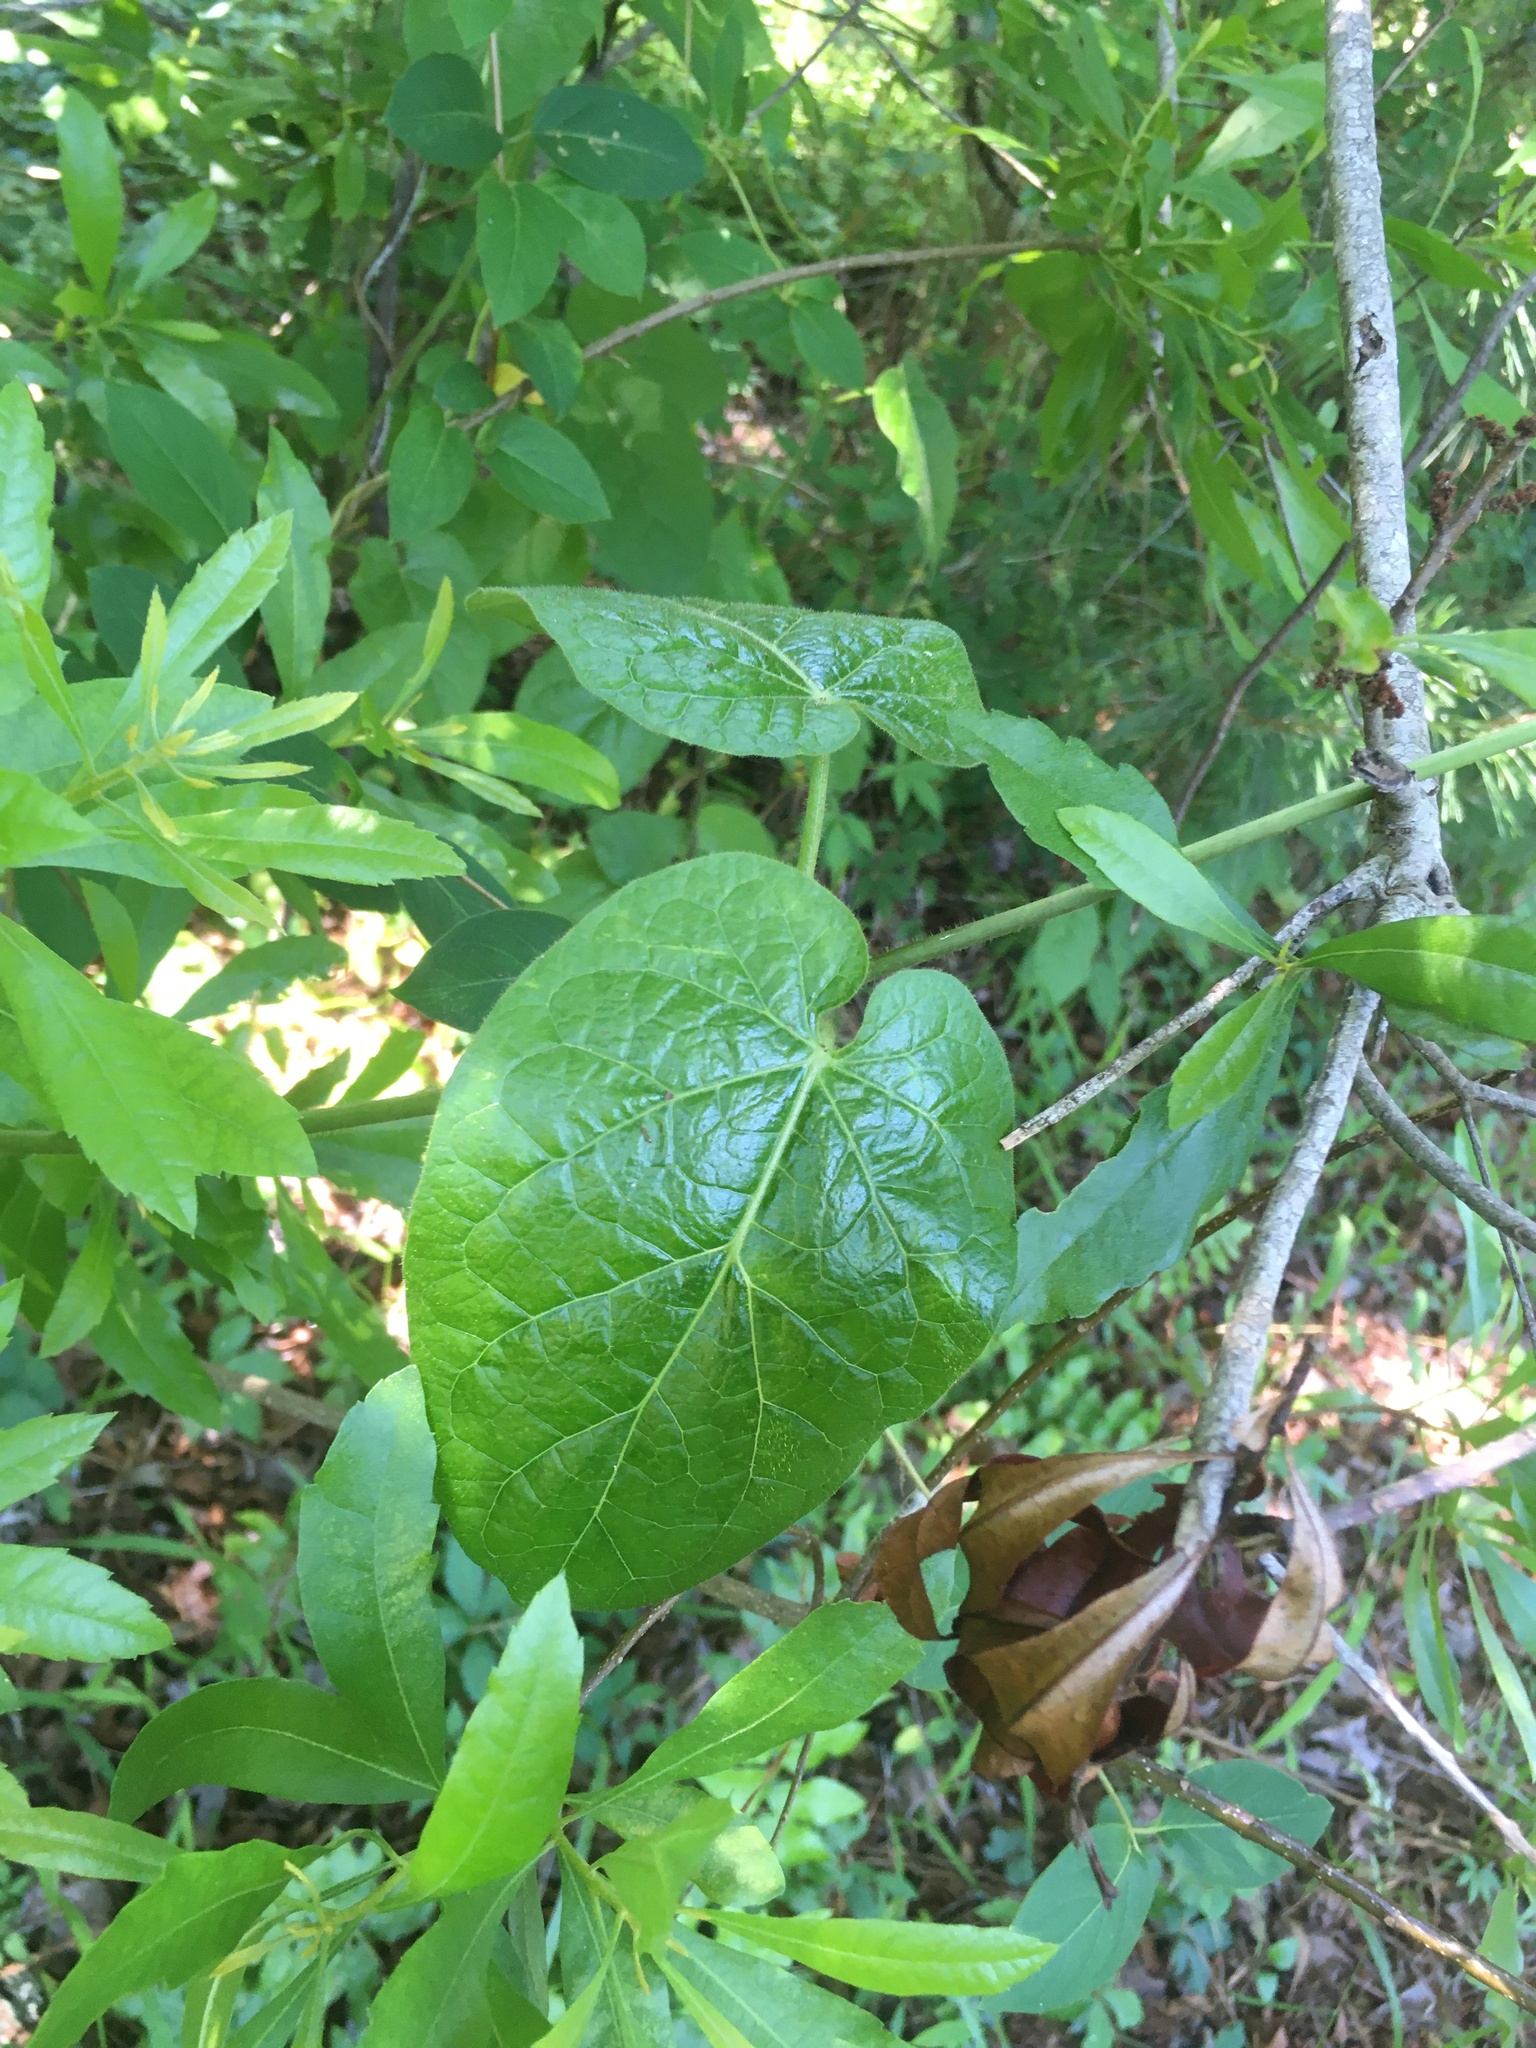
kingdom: Plantae
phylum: Tracheophyta
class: Magnoliopsida
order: Gentianales
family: Apocynaceae
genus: Gonolobus
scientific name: Gonolobus suberosus
